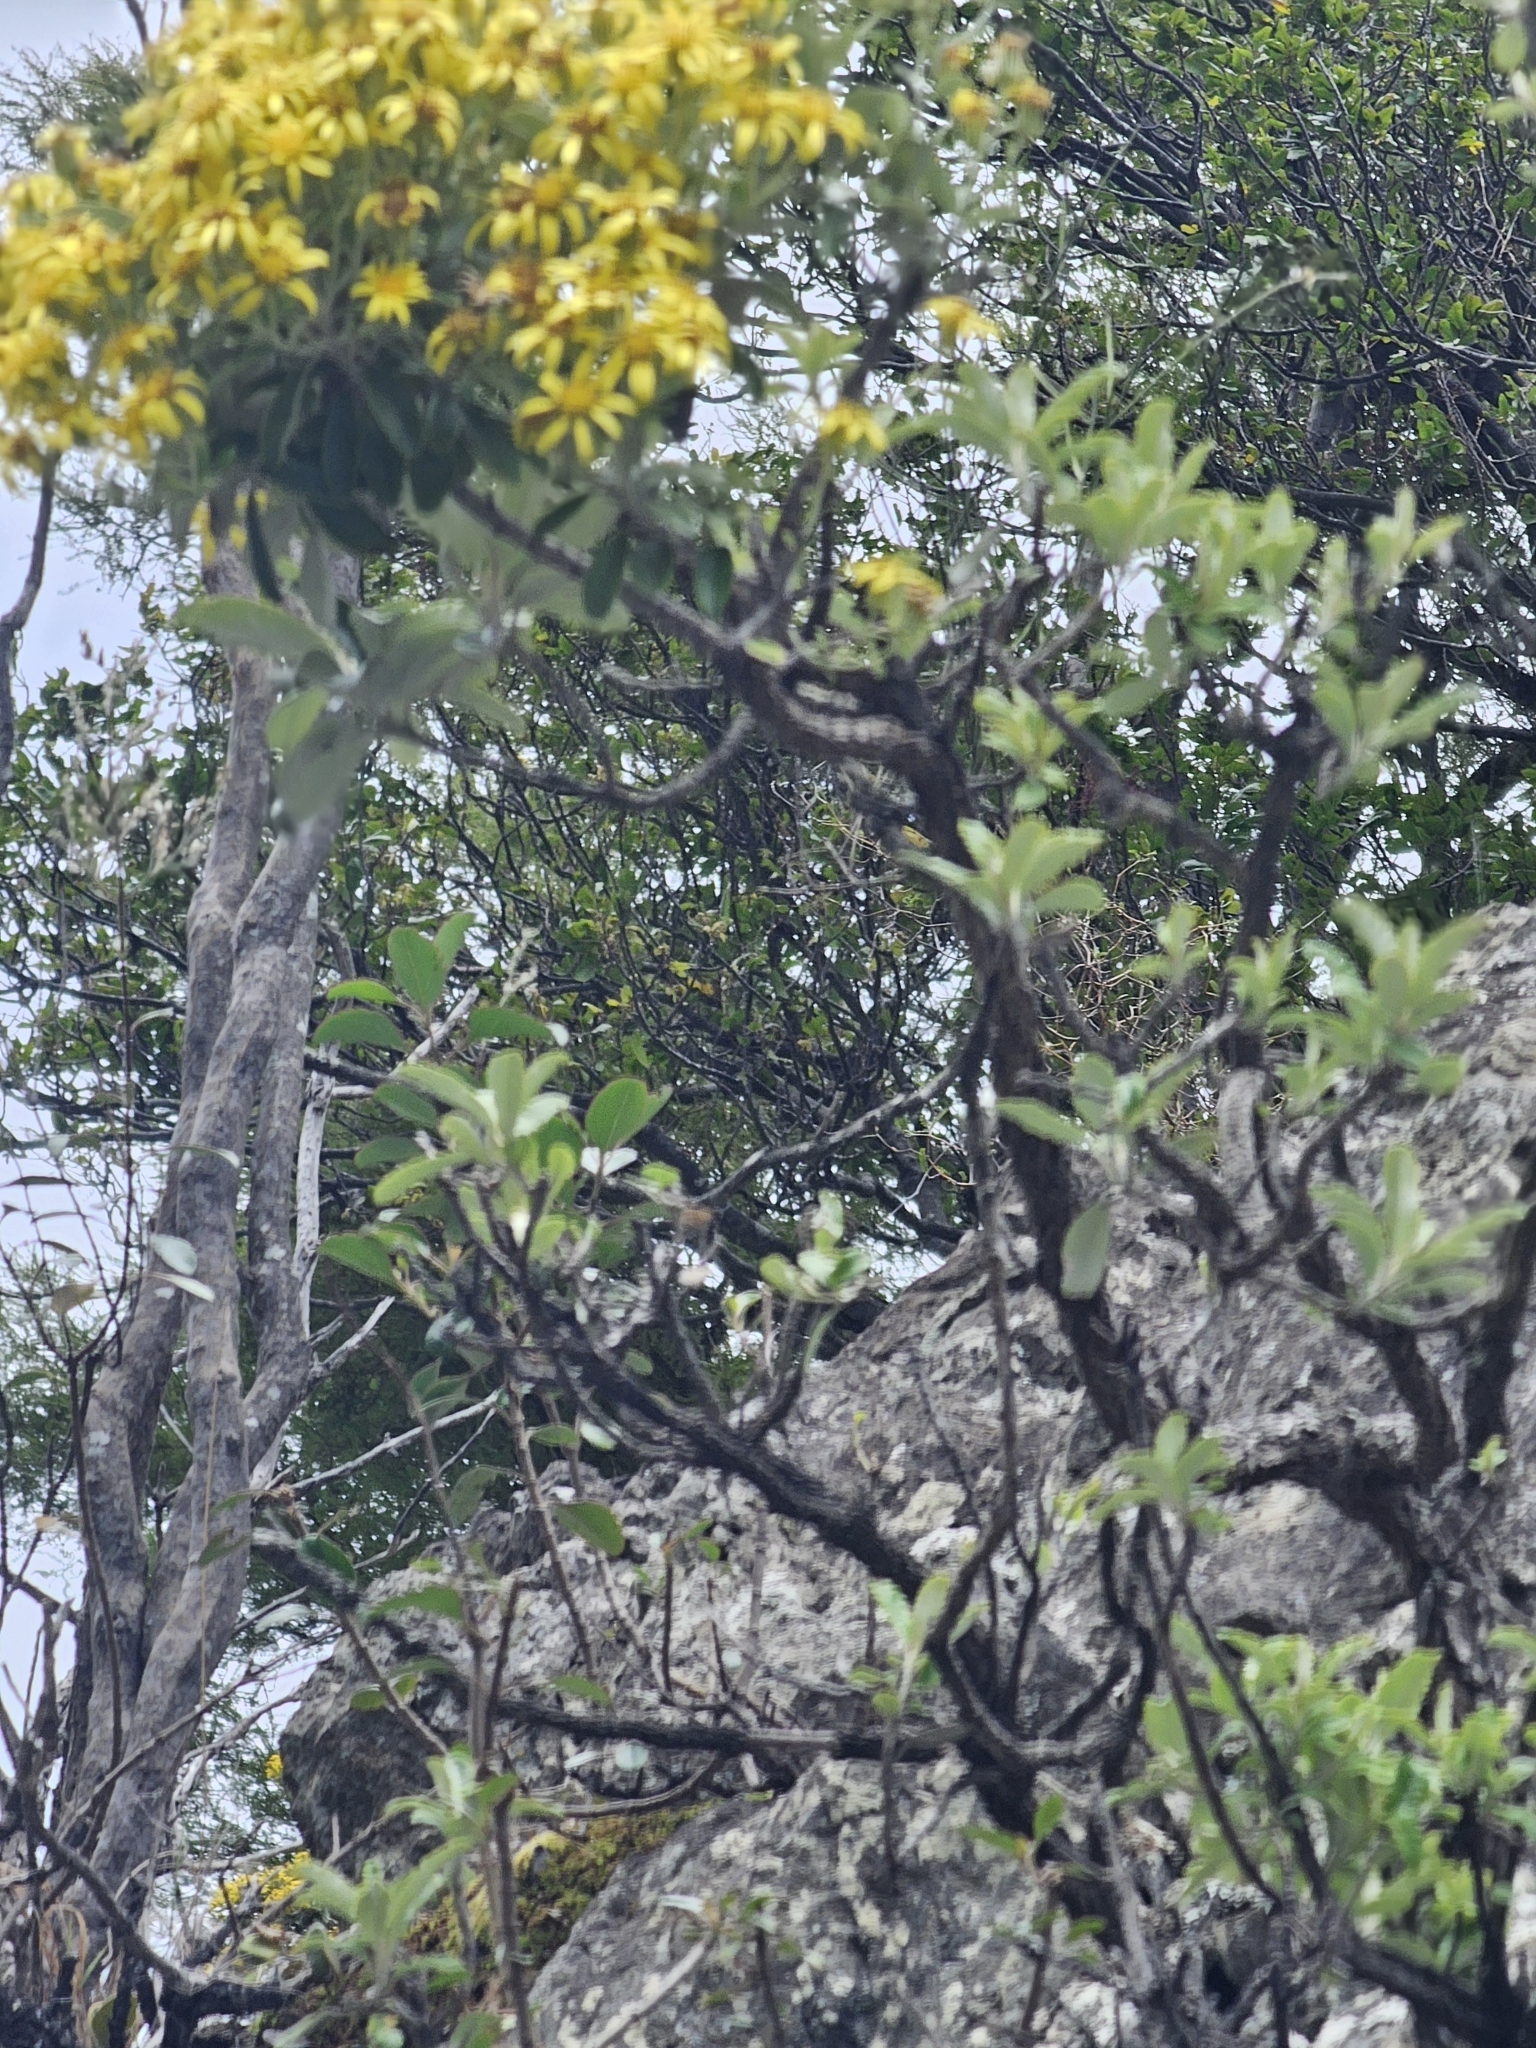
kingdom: Plantae
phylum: Tracheophyta
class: Magnoliopsida
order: Asterales
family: Asteraceae
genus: Brachyglottis
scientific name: Brachyglottis monroi
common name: Monro's ragwort
